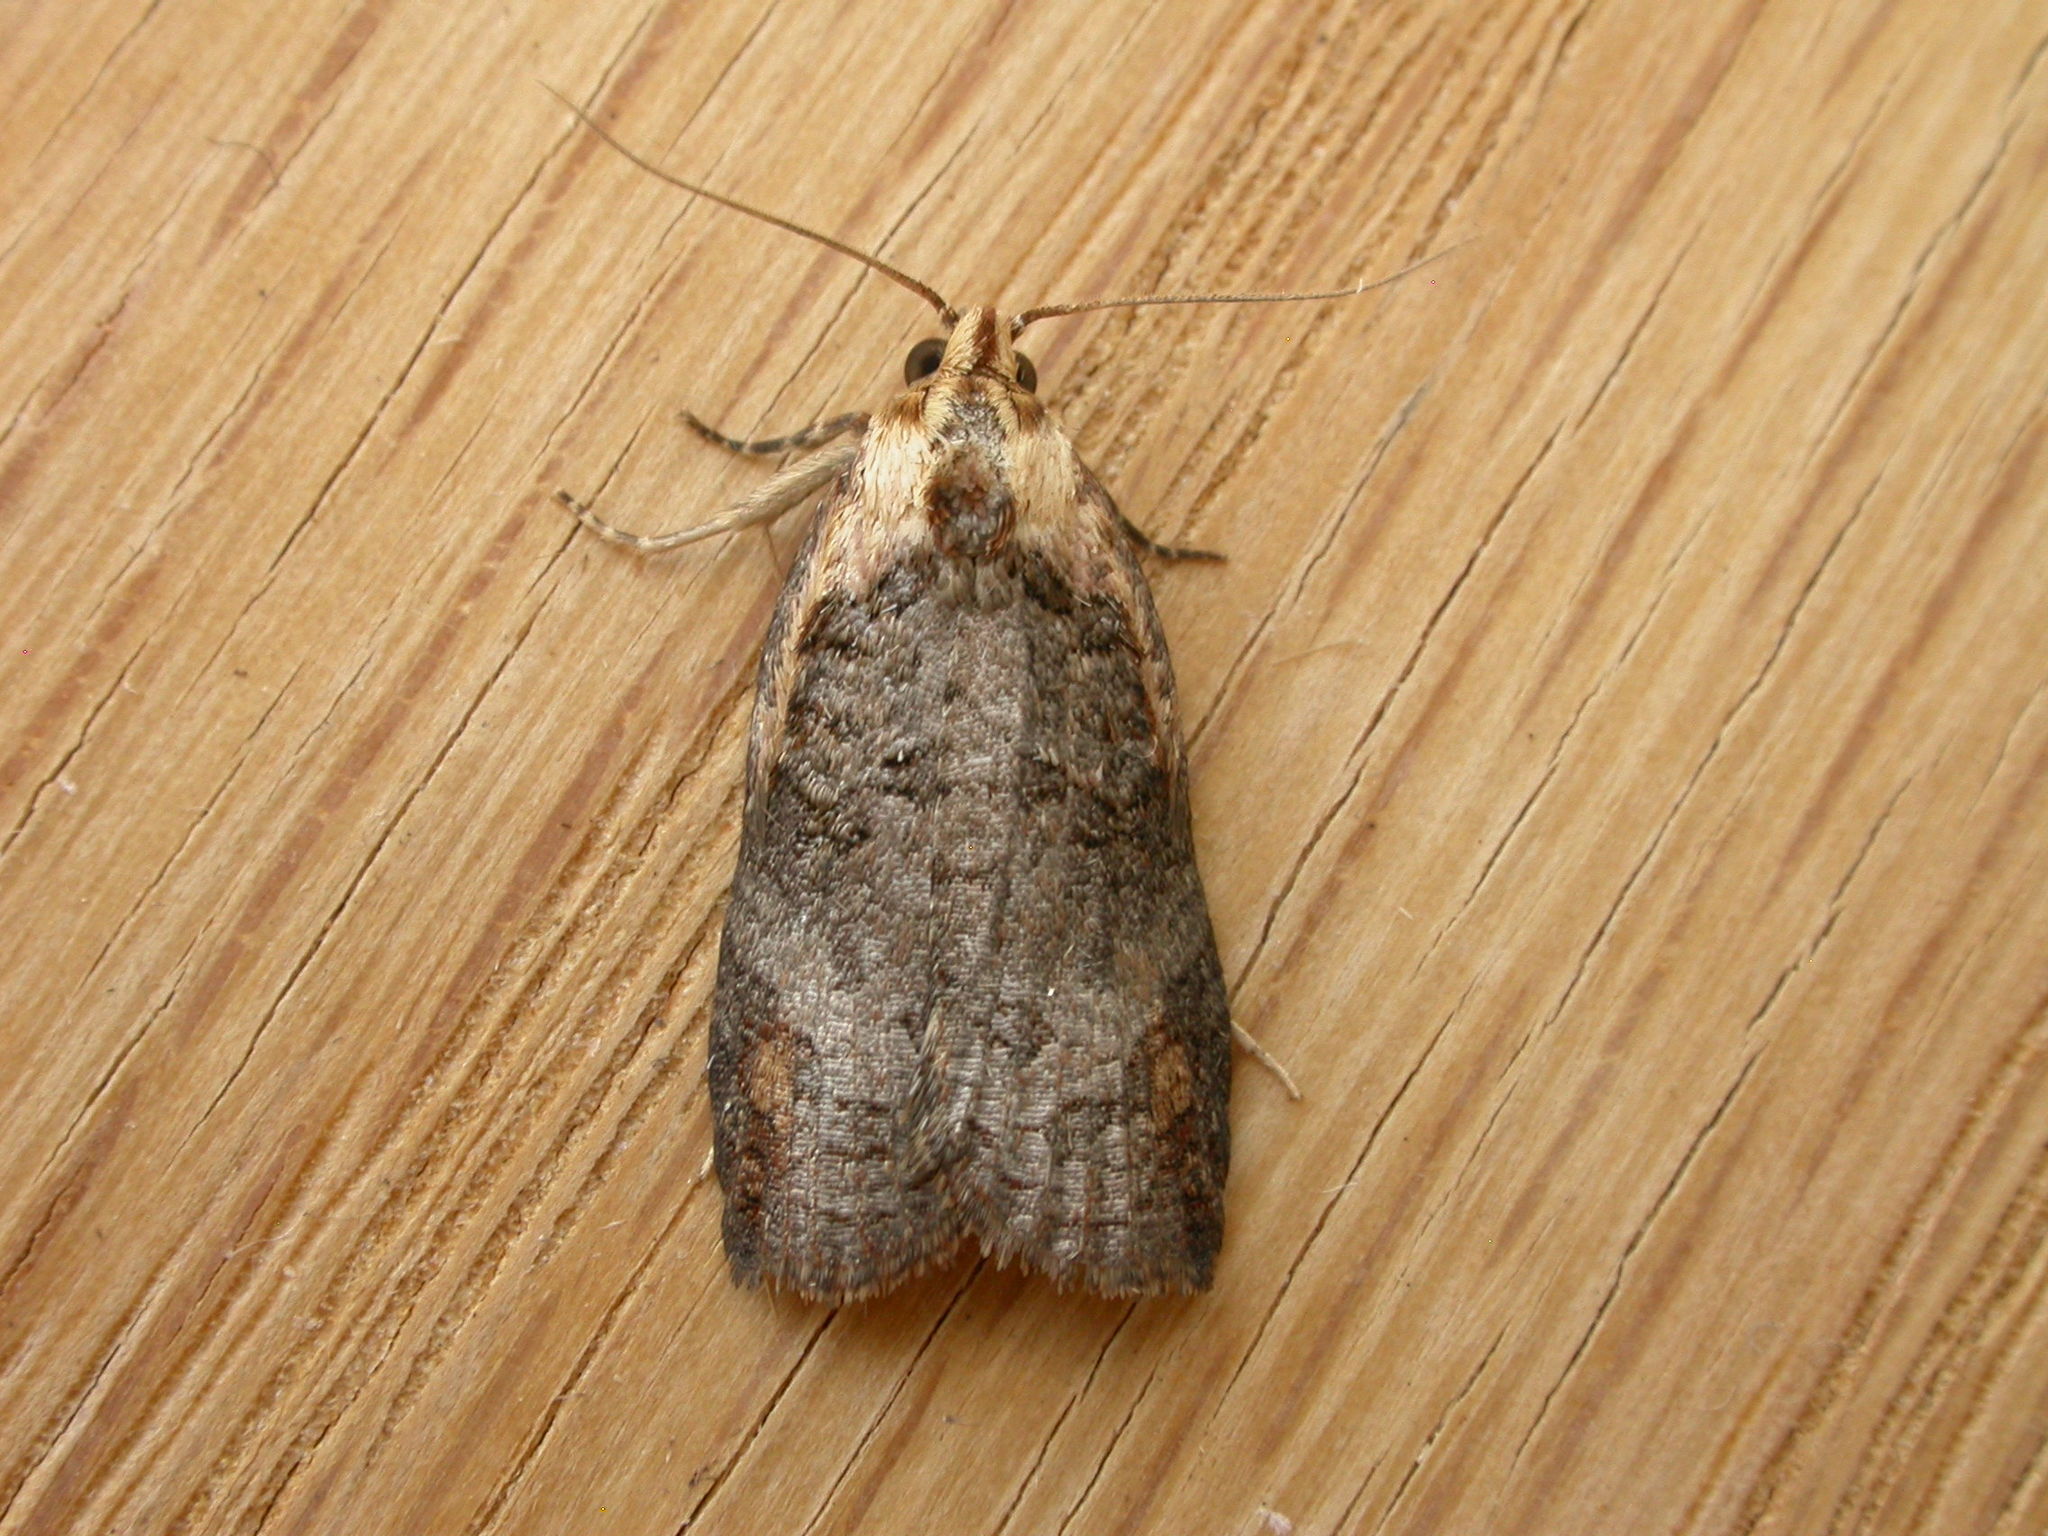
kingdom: Animalia
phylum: Arthropoda
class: Insecta
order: Lepidoptera
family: Tortricidae
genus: Cryptoptila
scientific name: Cryptoptila immersana
